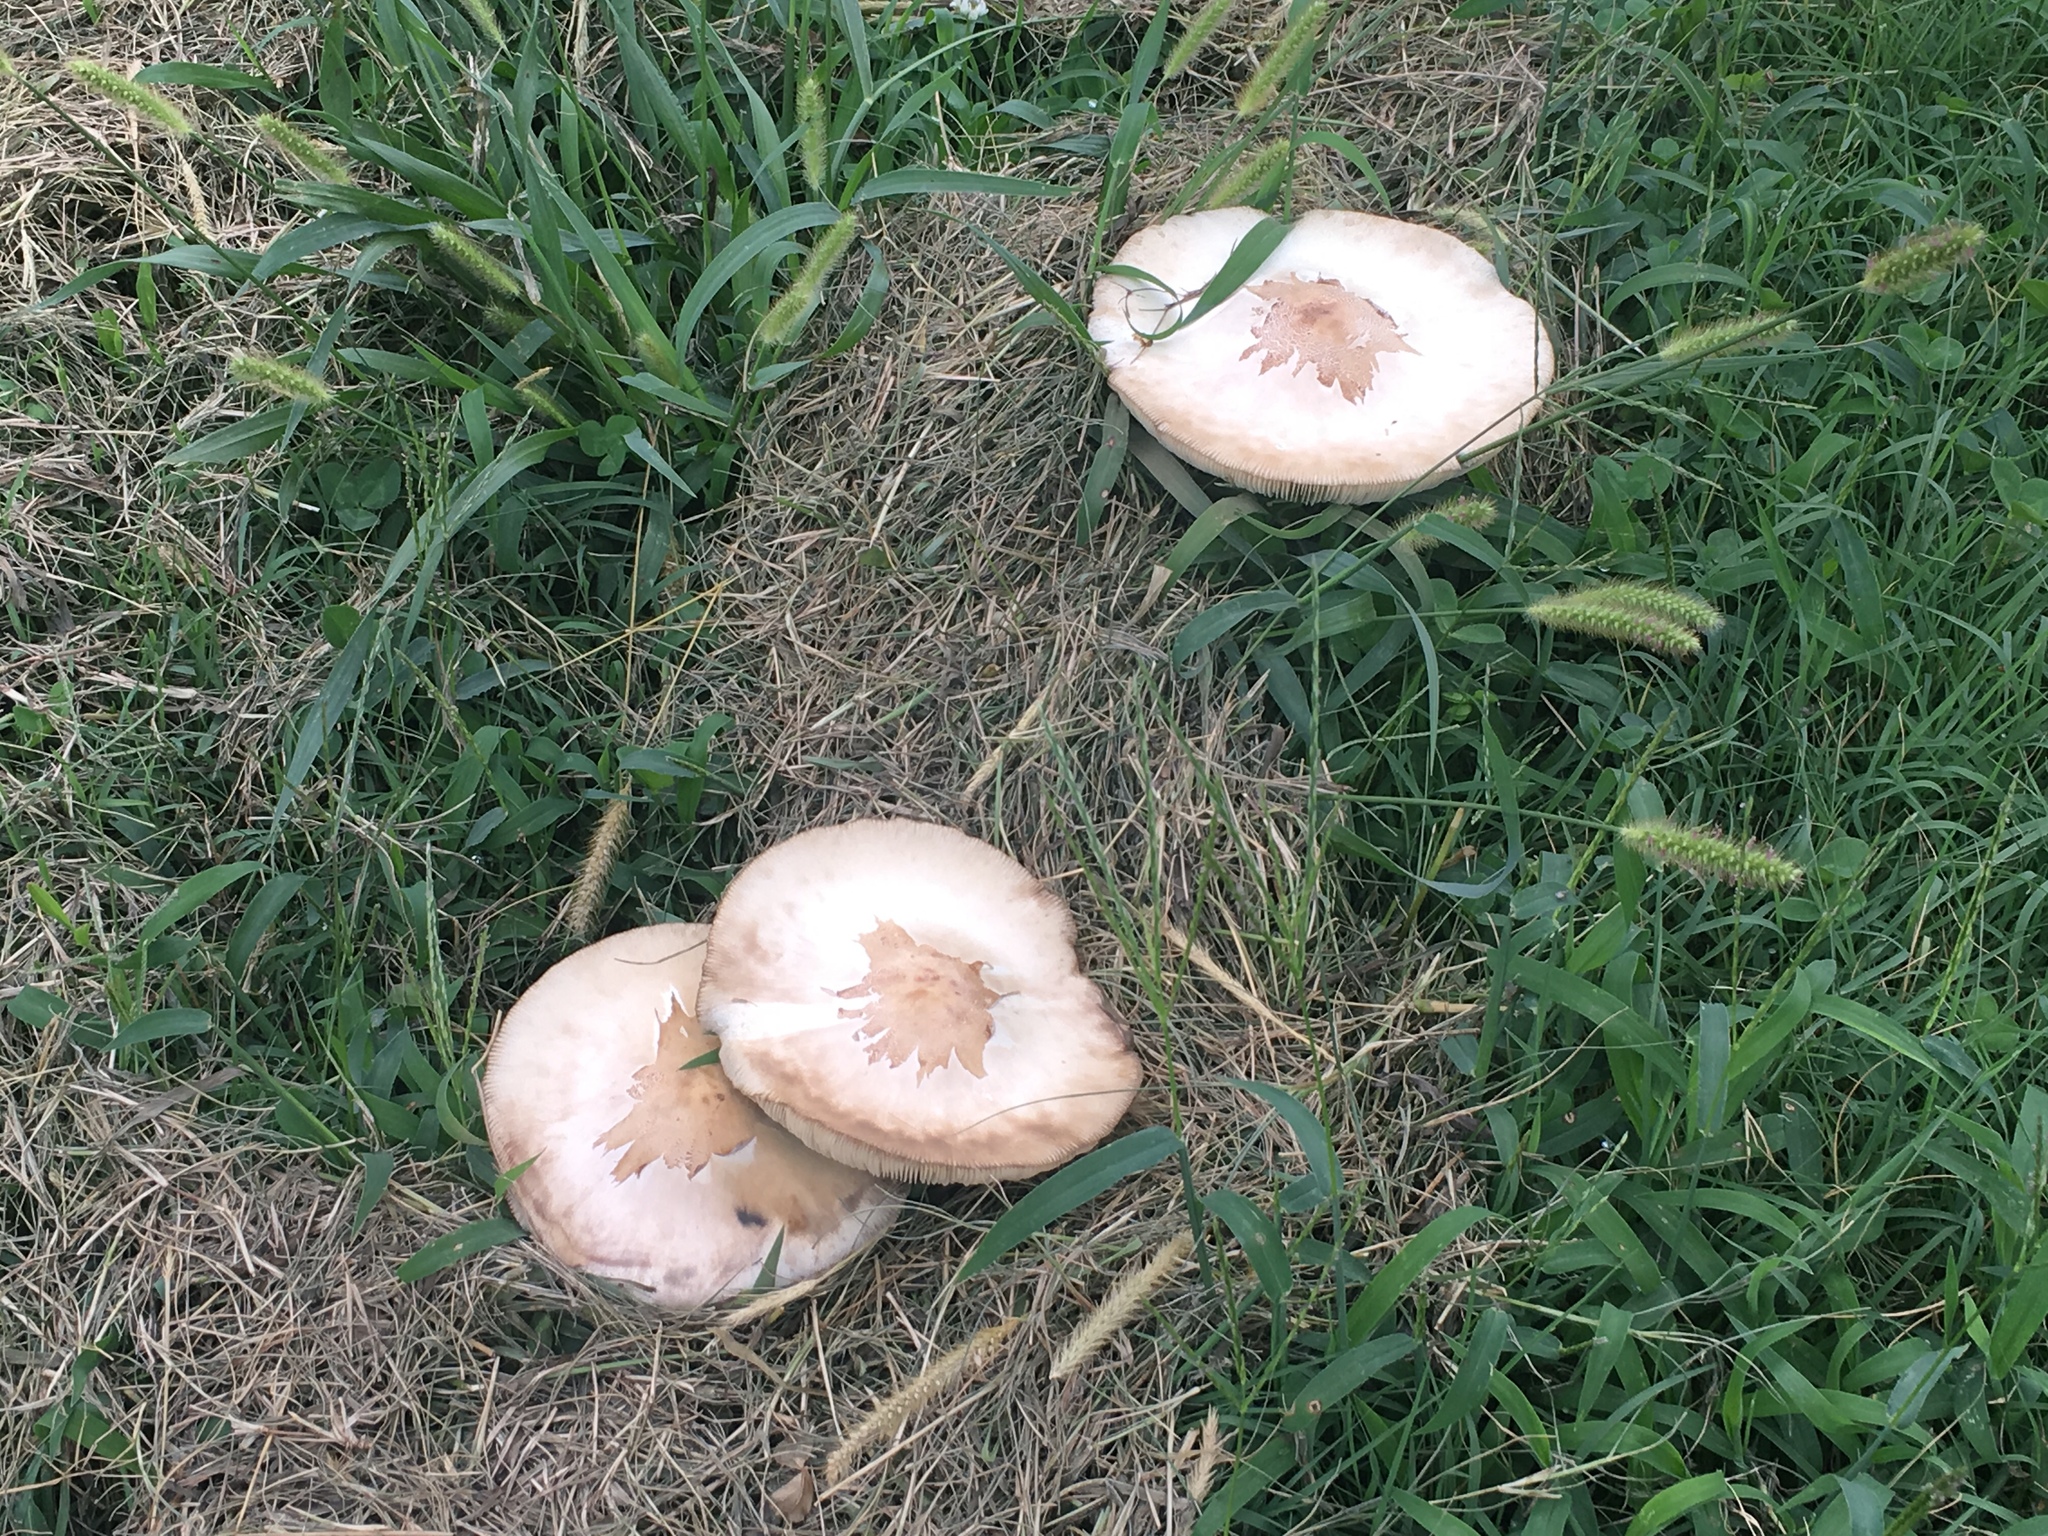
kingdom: Fungi
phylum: Basidiomycota
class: Agaricomycetes
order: Agaricales
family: Agaricaceae
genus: Chlorophyllum
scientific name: Chlorophyllum molybdites
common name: False parasol
